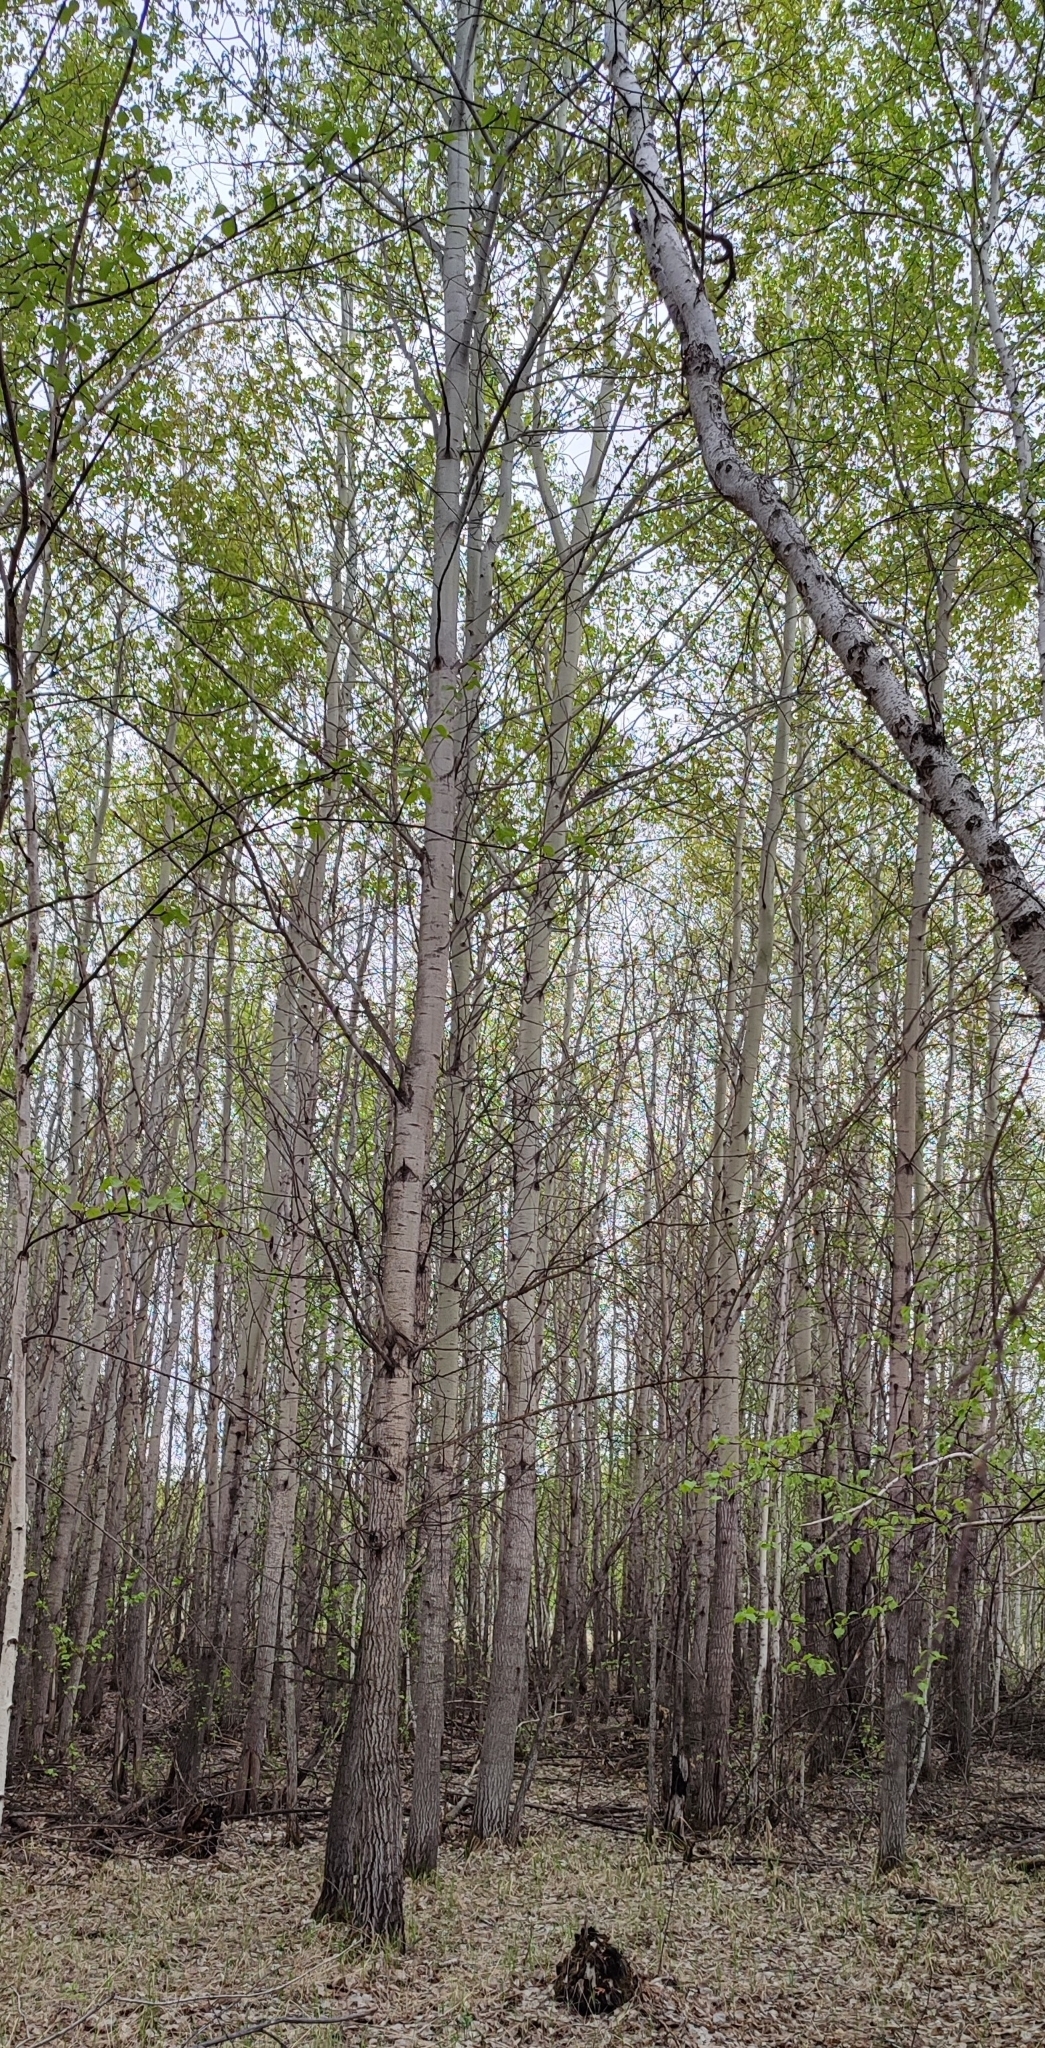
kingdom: Plantae
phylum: Tracheophyta
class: Magnoliopsida
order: Malpighiales
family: Salicaceae
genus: Populus
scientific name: Populus tremula
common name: European aspen
